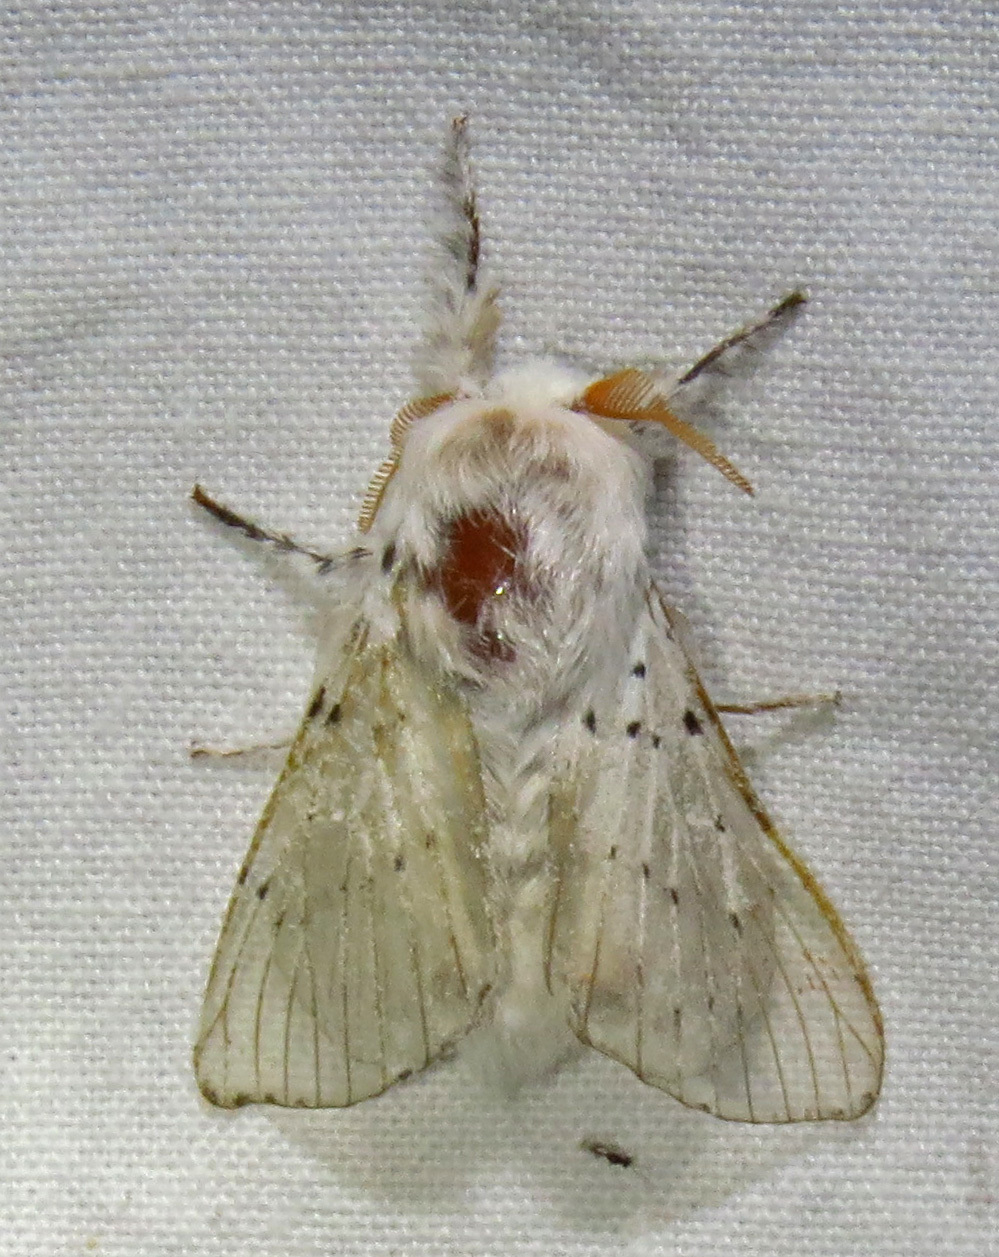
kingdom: Animalia
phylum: Arthropoda
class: Insecta
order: Lepidoptera
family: Lasiocampidae
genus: Artace
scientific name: Artace cribrarius
